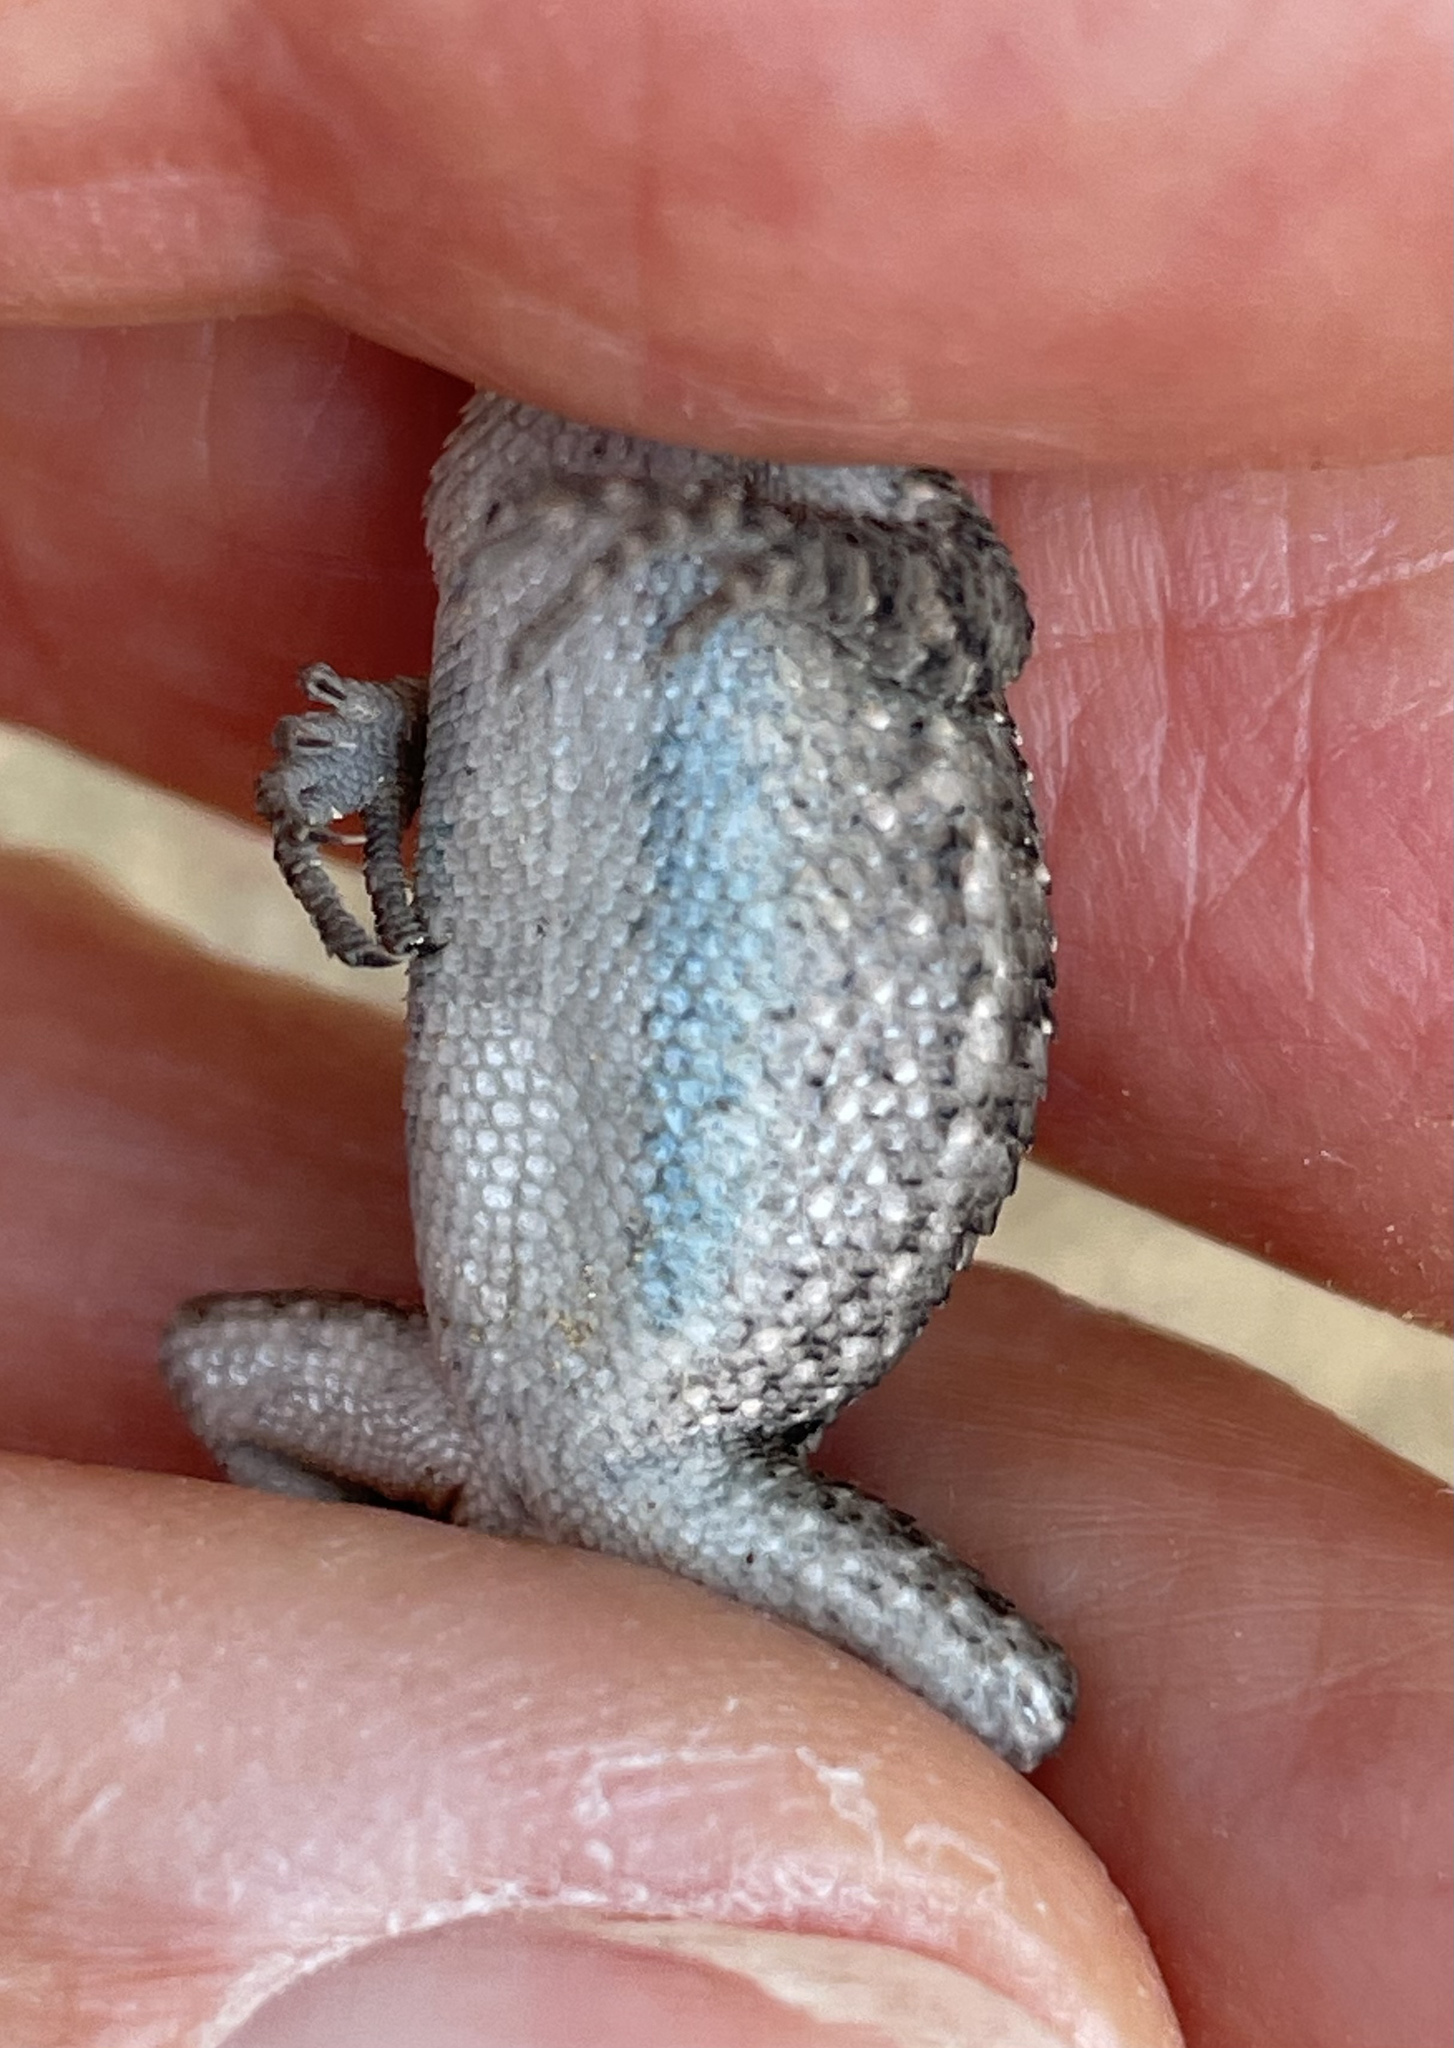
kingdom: Animalia
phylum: Chordata
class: Squamata
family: Phrynosomatidae
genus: Sceloporus
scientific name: Sceloporus occidentalis
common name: Western fence lizard
